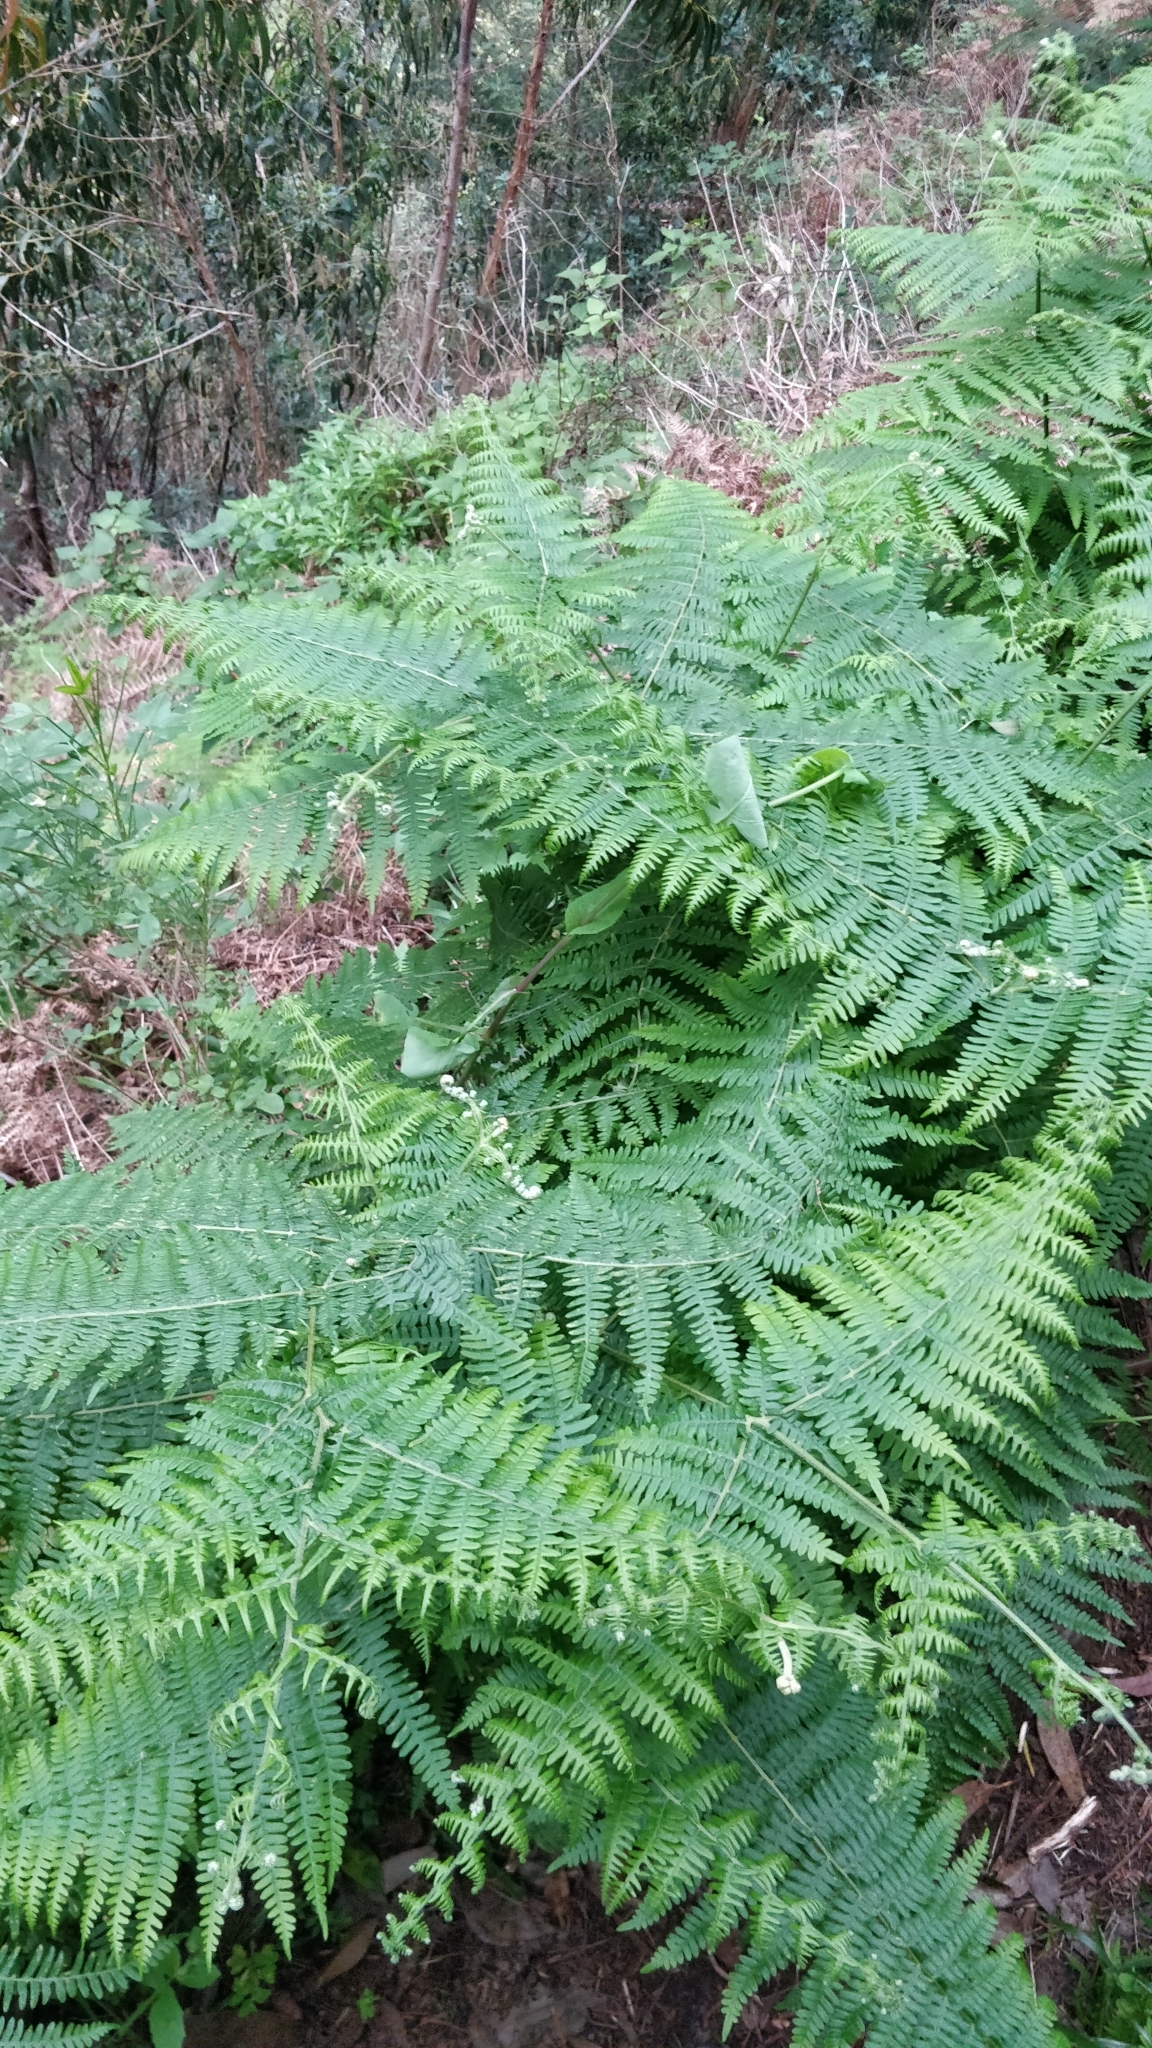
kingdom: Plantae
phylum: Tracheophyta
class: Polypodiopsida
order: Polypodiales
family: Dennstaedtiaceae
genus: Pteridium
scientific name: Pteridium aquilinum
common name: Bracken
